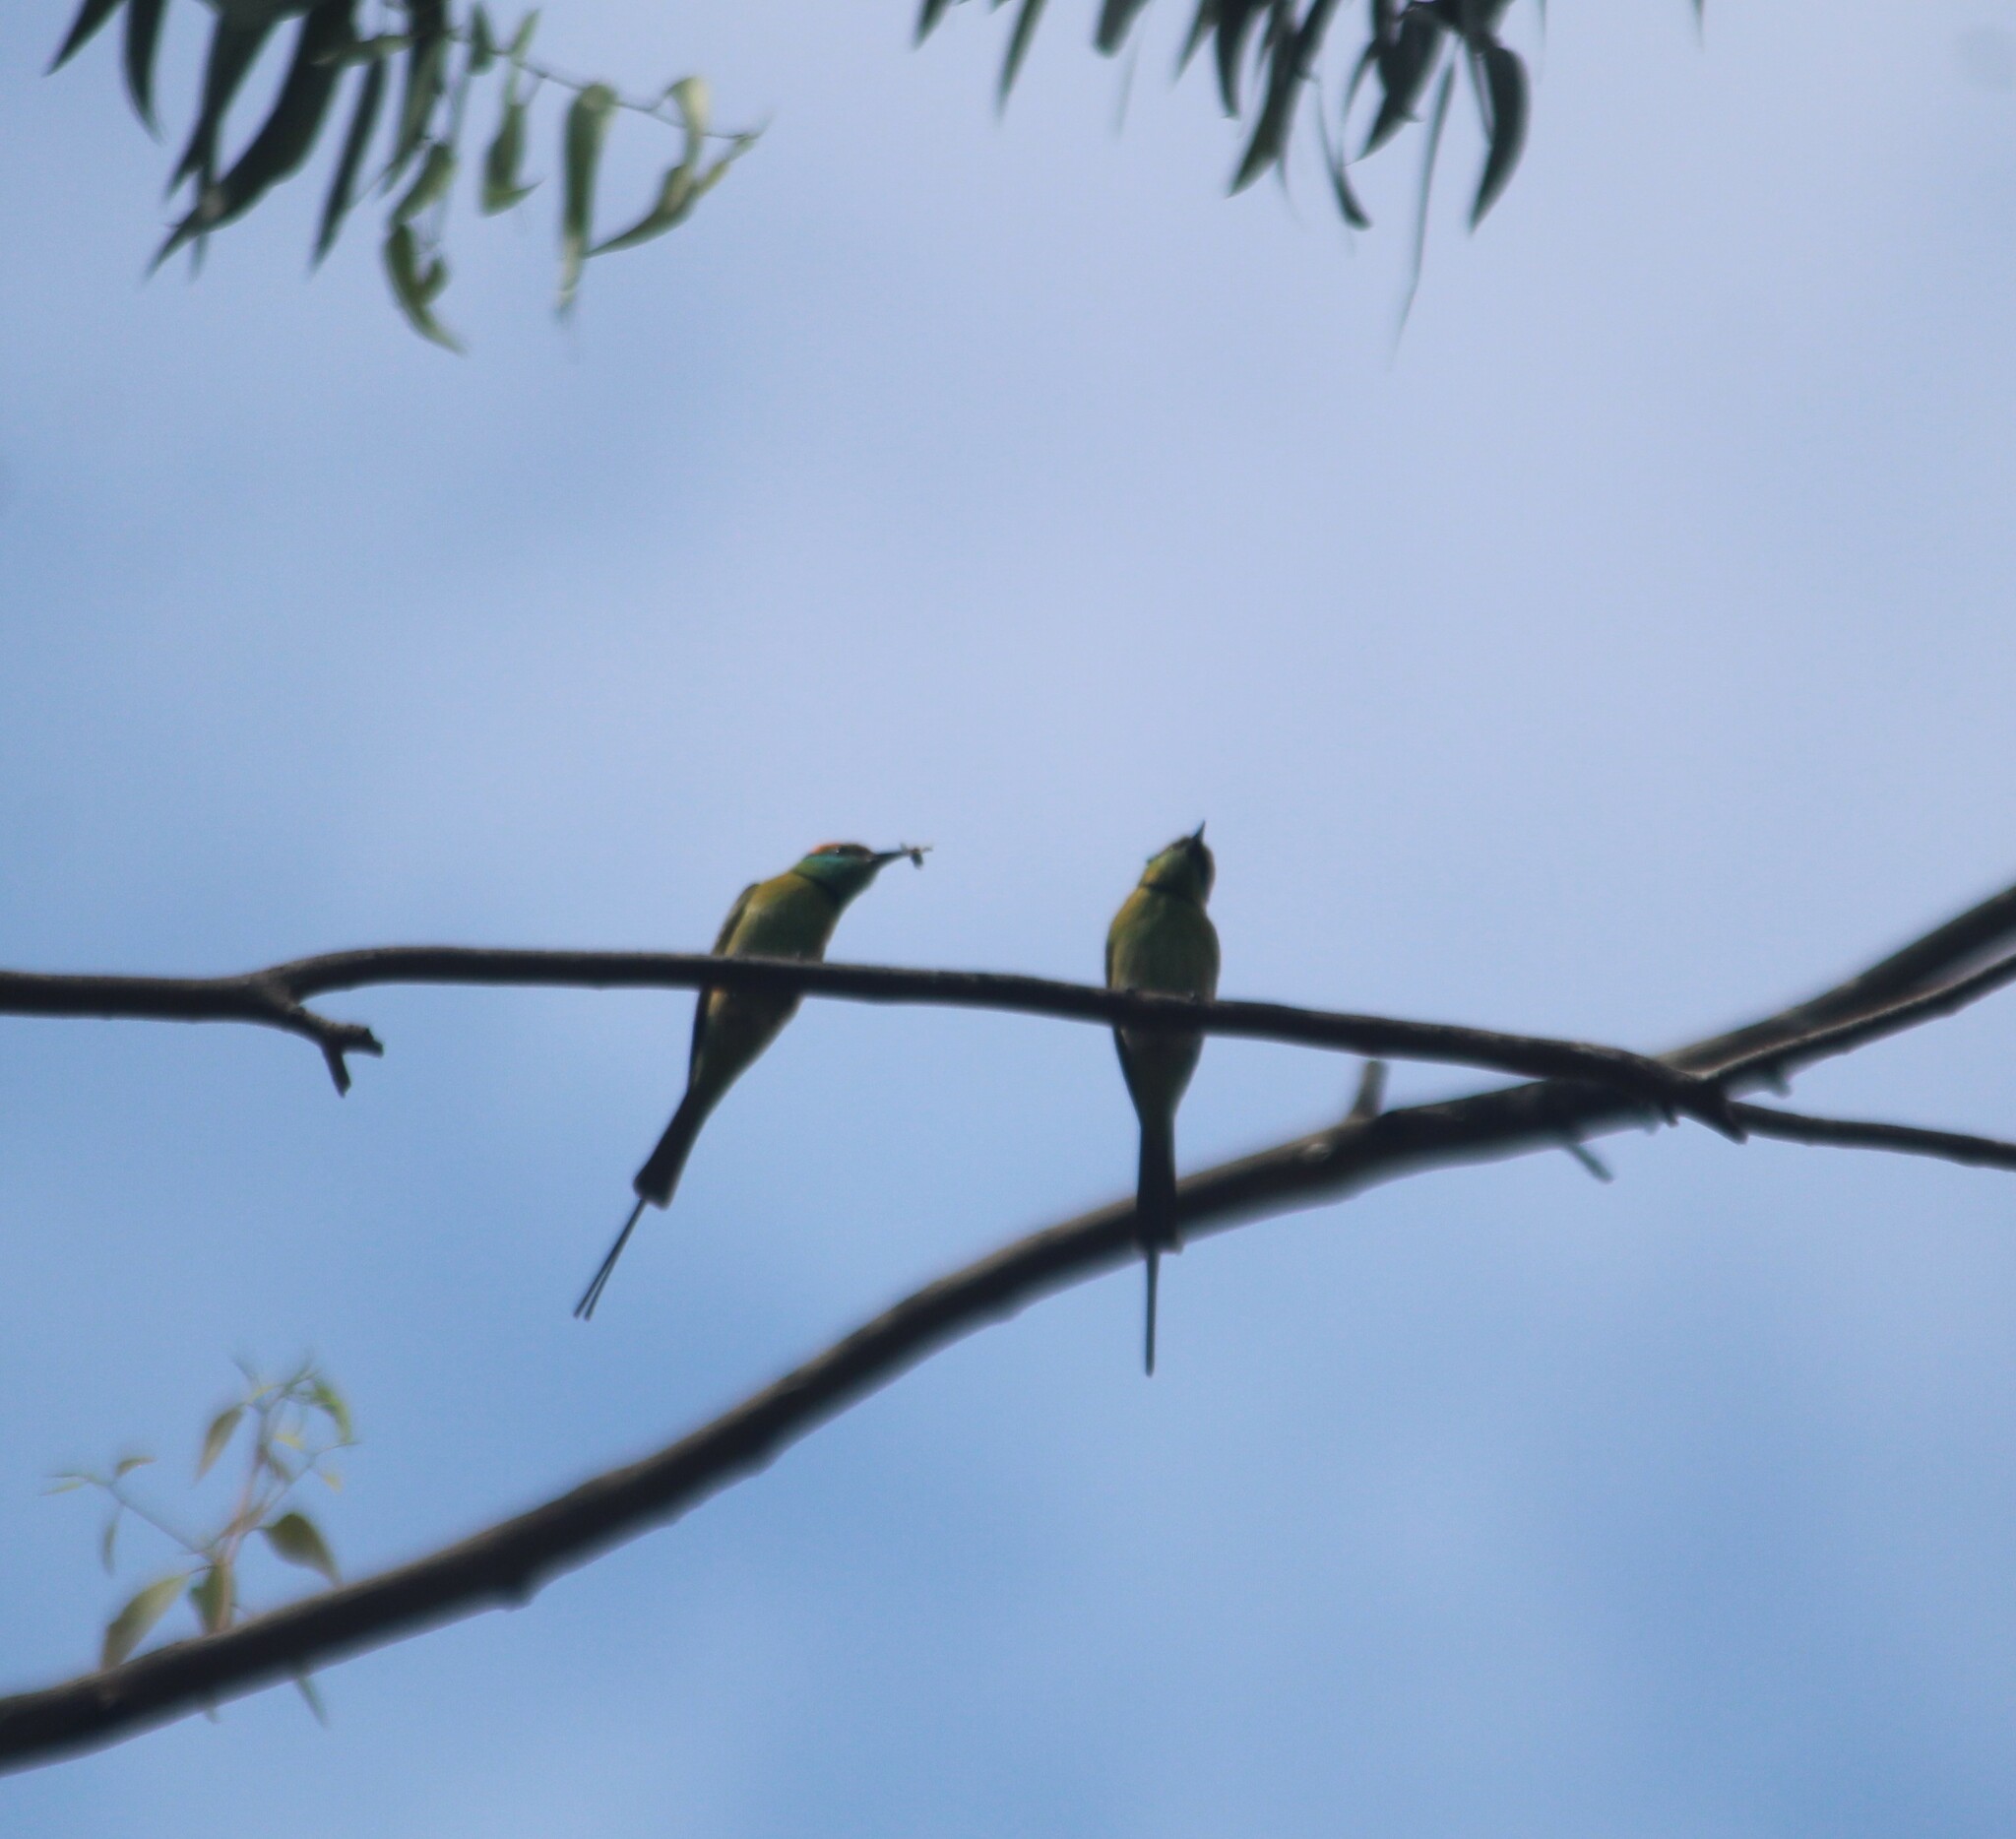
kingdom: Animalia
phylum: Chordata
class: Aves
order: Coraciiformes
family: Meropidae
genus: Merops
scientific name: Merops orientalis
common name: Green bee-eater
